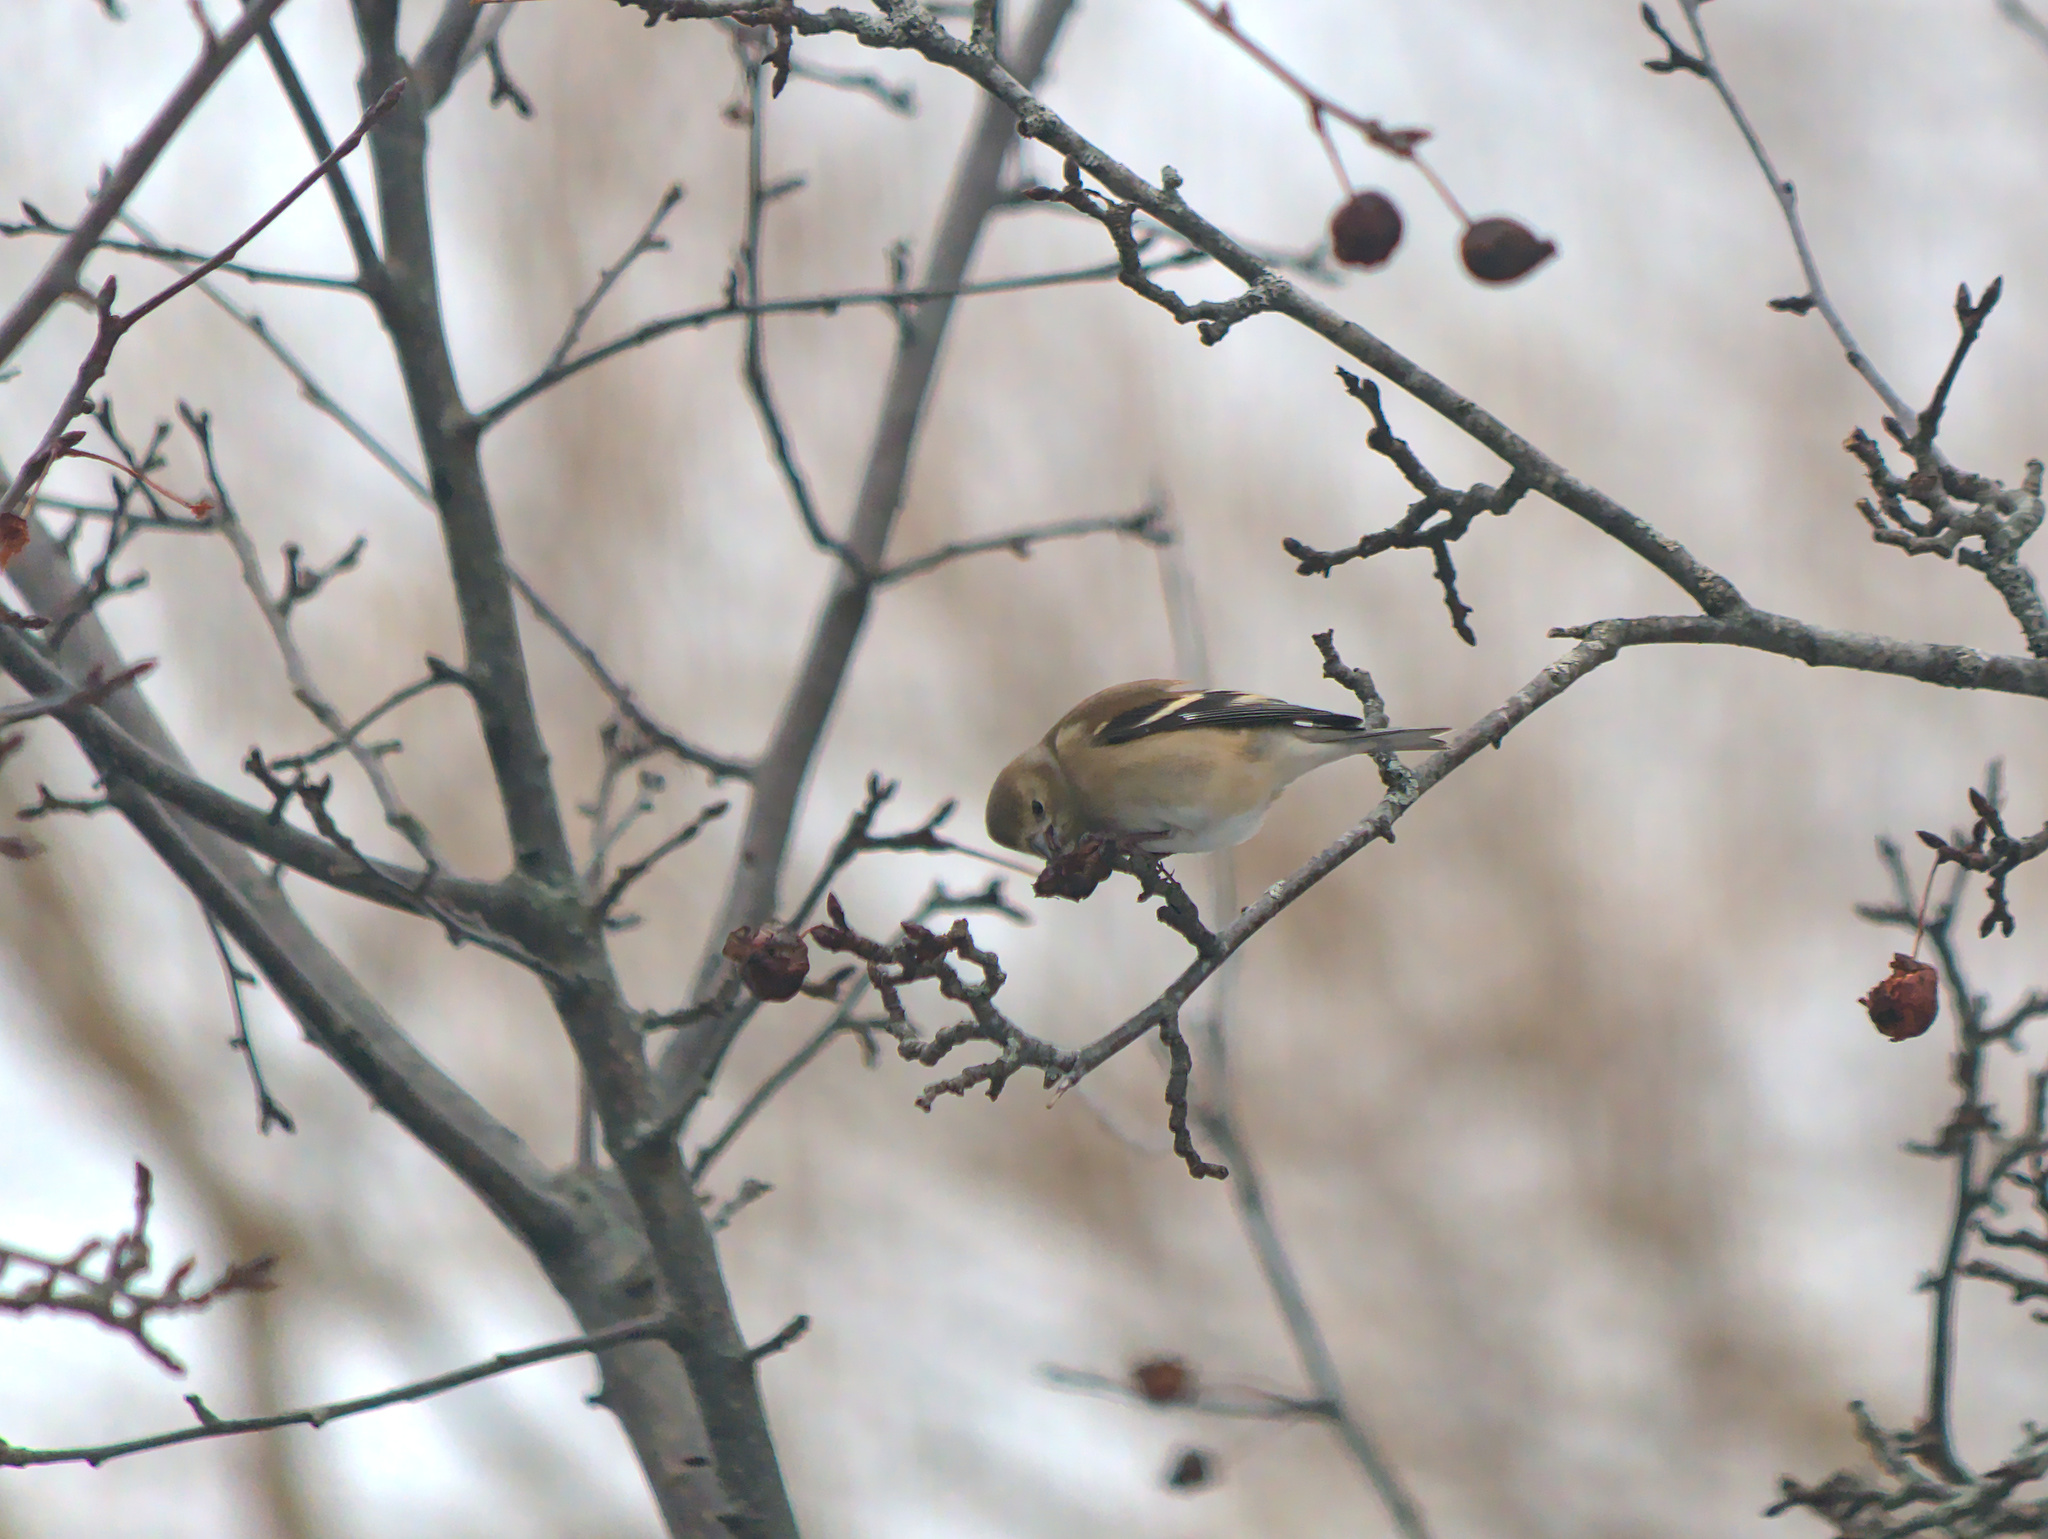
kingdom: Animalia
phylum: Chordata
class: Aves
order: Passeriformes
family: Fringillidae
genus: Spinus
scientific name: Spinus tristis
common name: American goldfinch
